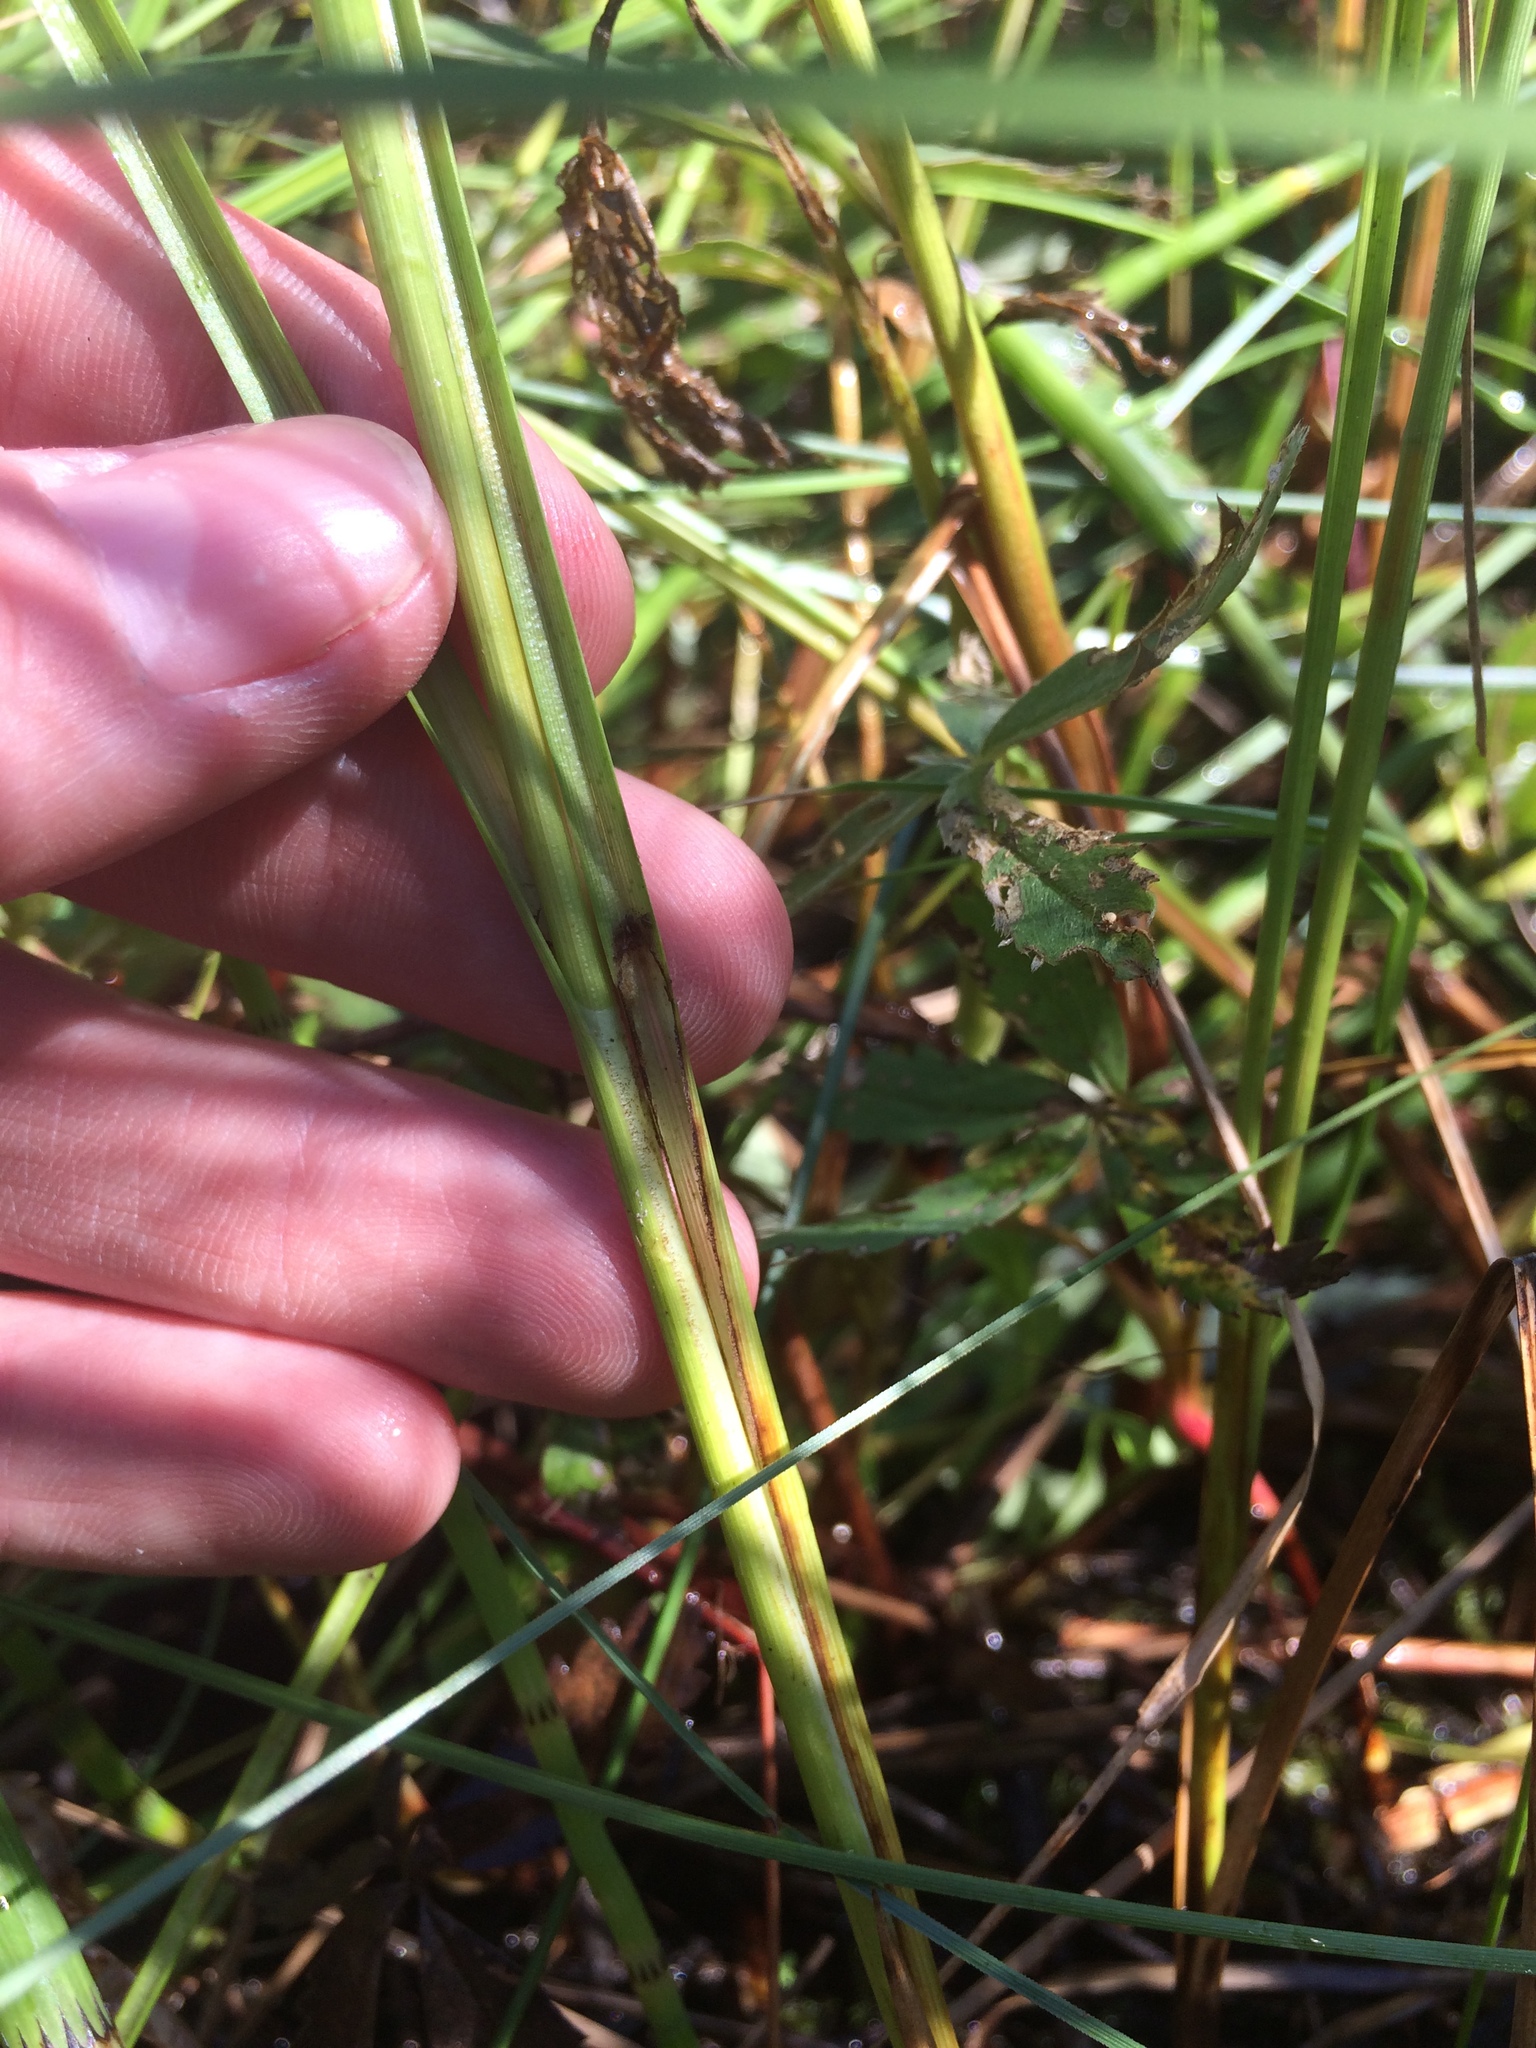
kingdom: Plantae
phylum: Tracheophyta
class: Liliopsida
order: Poales
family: Cyperaceae
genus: Carex
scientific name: Carex diandra
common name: Lesser tussock-sedge
